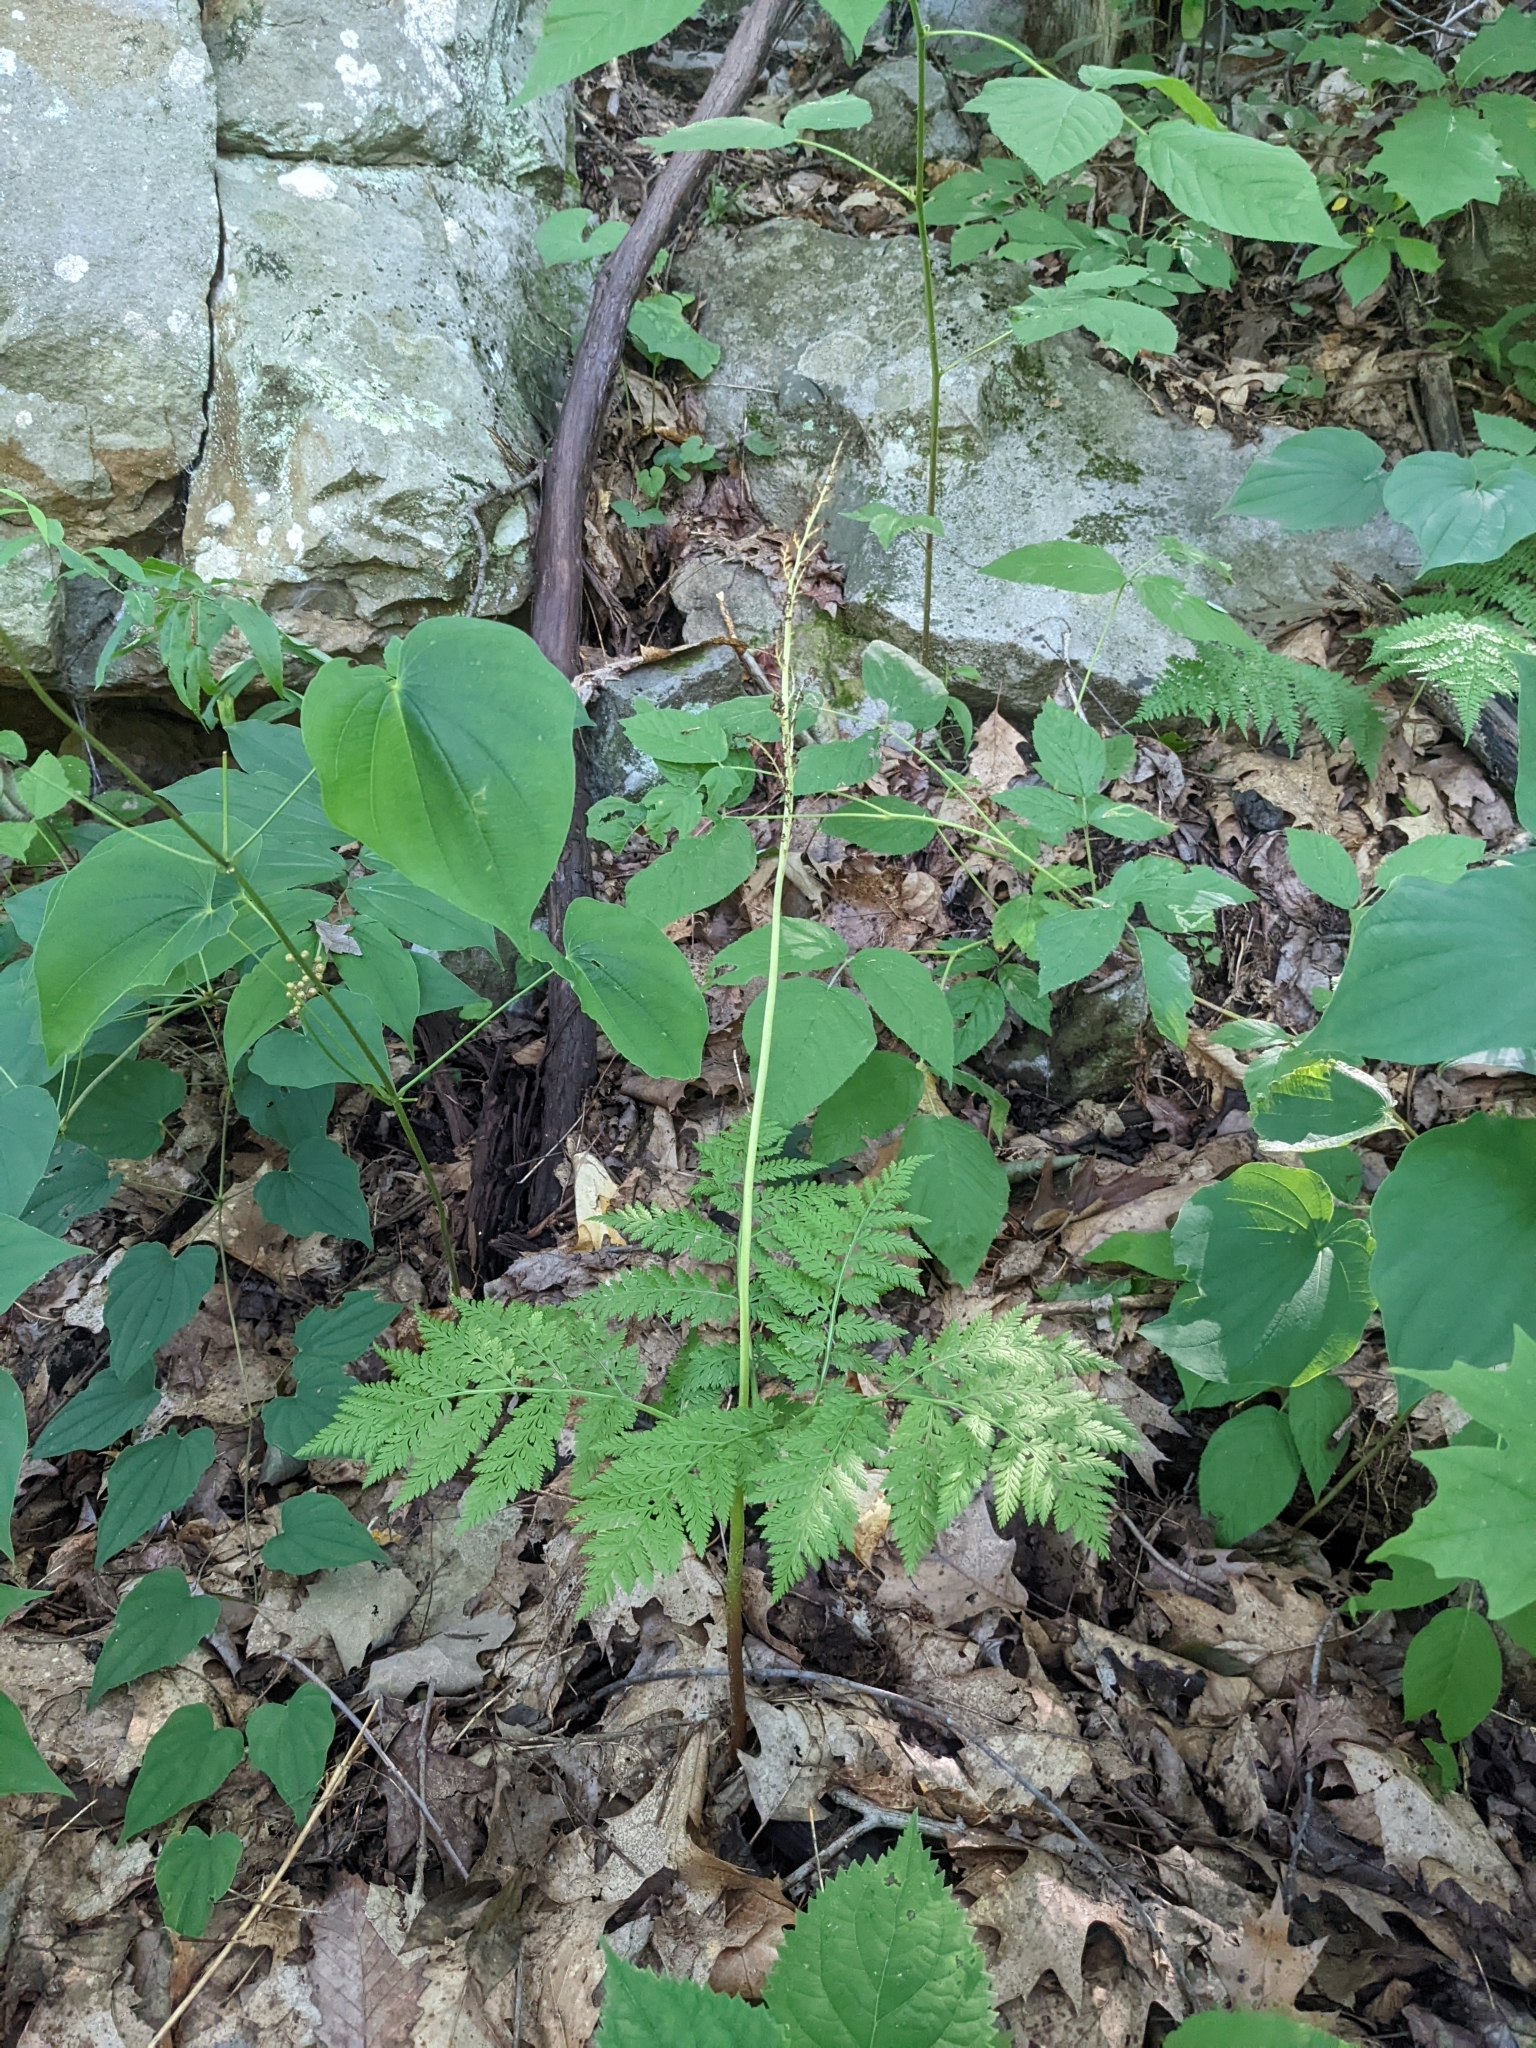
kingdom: Plantae
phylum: Tracheophyta
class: Polypodiopsida
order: Ophioglossales
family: Ophioglossaceae
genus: Botrypus
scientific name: Botrypus virginianus
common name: Common grapefern
